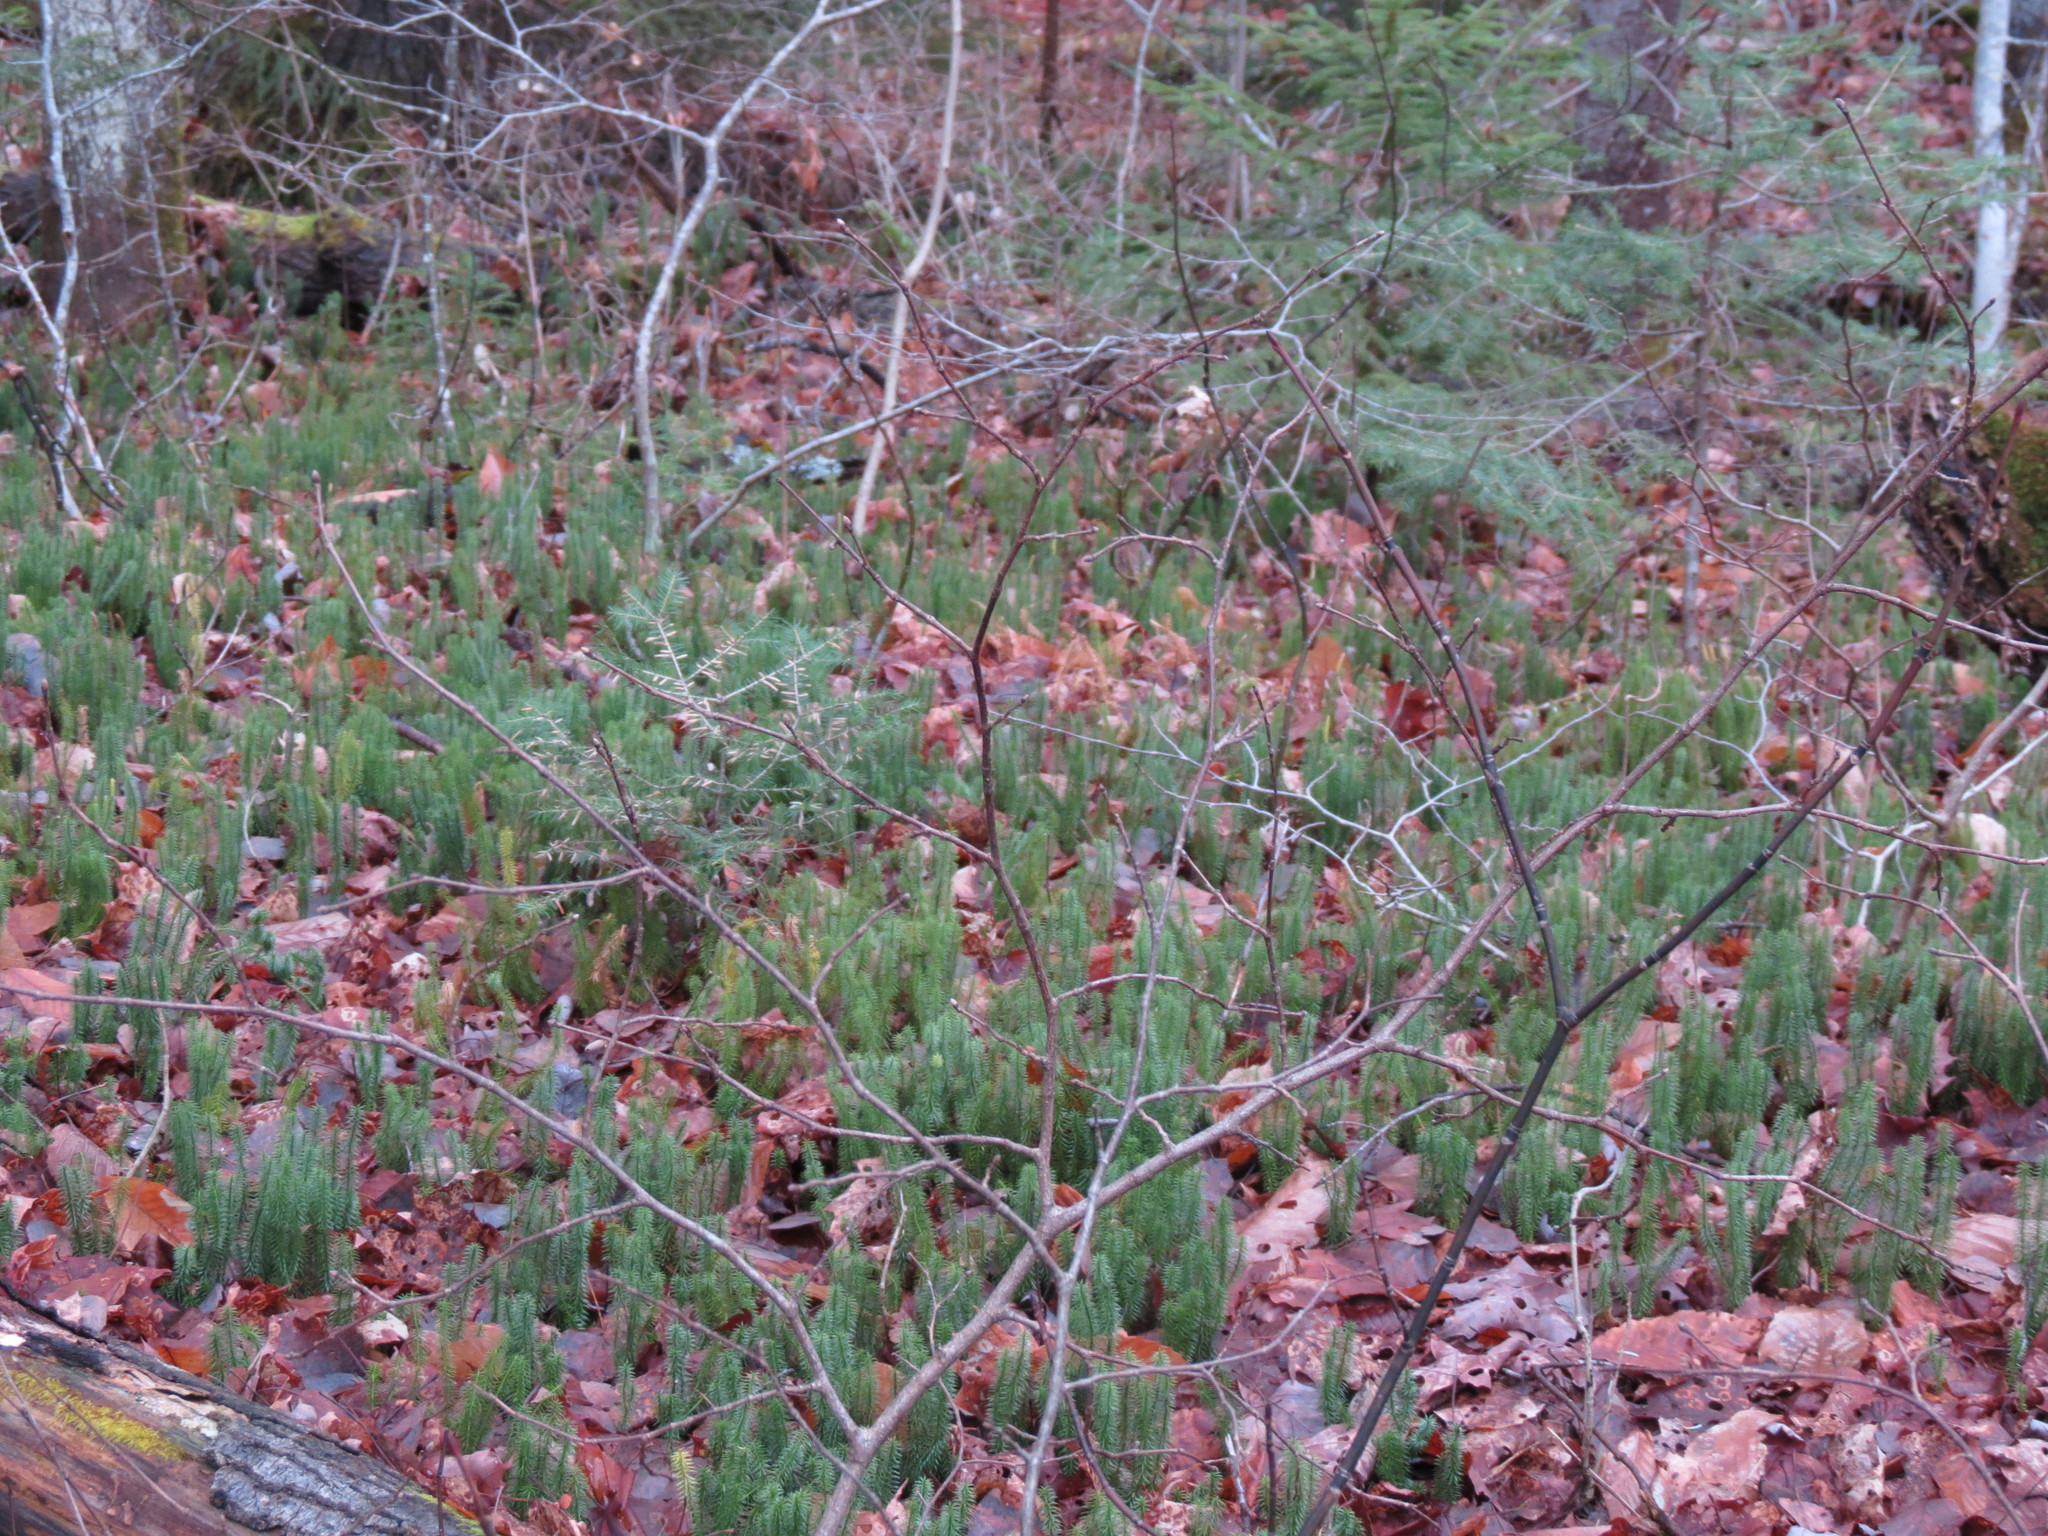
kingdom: Plantae
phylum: Tracheophyta
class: Lycopodiopsida
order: Lycopodiales
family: Lycopodiaceae
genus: Spinulum
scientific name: Spinulum annotinum
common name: Interrupted club-moss
